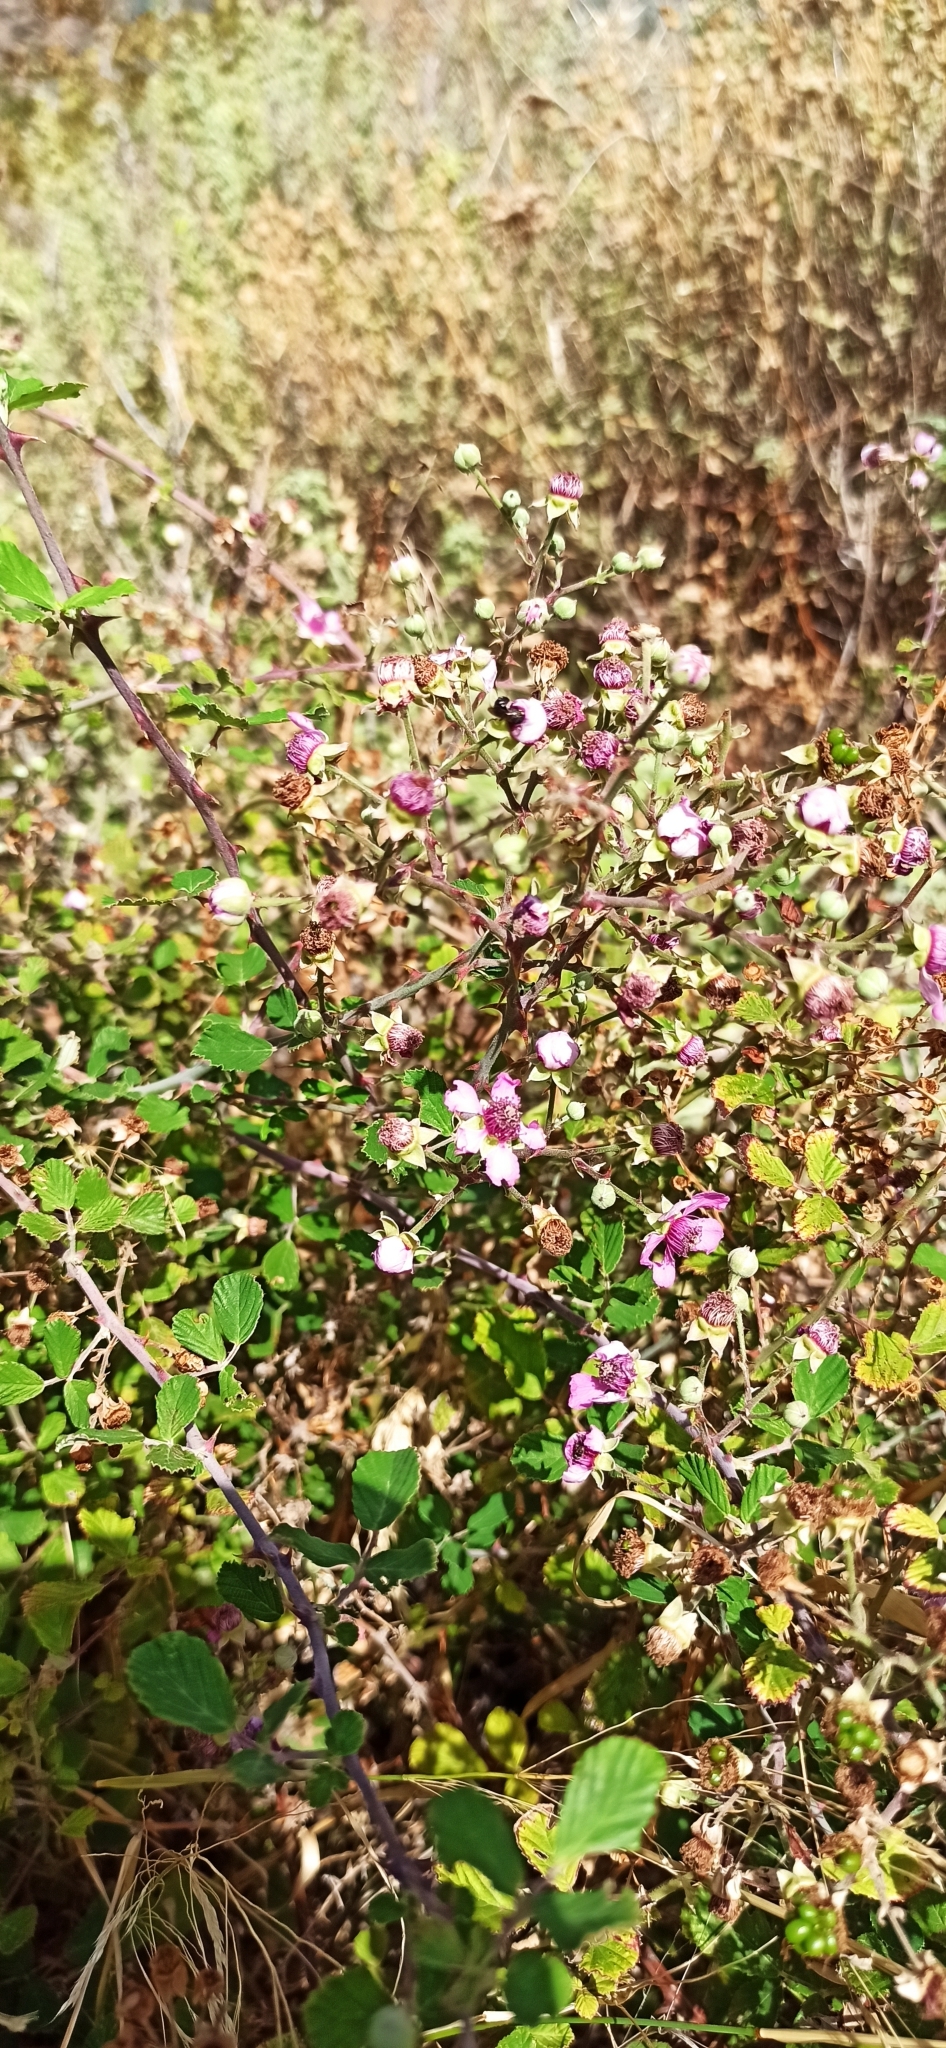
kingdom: Plantae
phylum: Tracheophyta
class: Magnoliopsida
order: Rosales
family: Rosaceae
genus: Rubus
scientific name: Rubus sanctus
